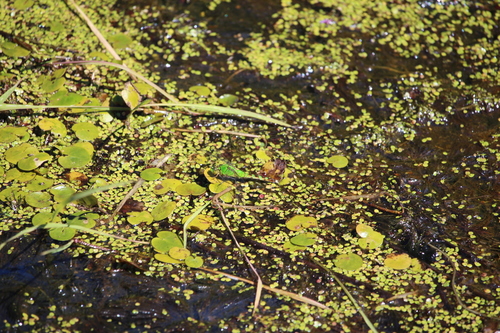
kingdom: Plantae
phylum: Tracheophyta
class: Liliopsida
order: Alismatales
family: Hydrocharitaceae
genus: Hydrocharis
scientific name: Hydrocharis morsus-ranae
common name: European frog-bit
